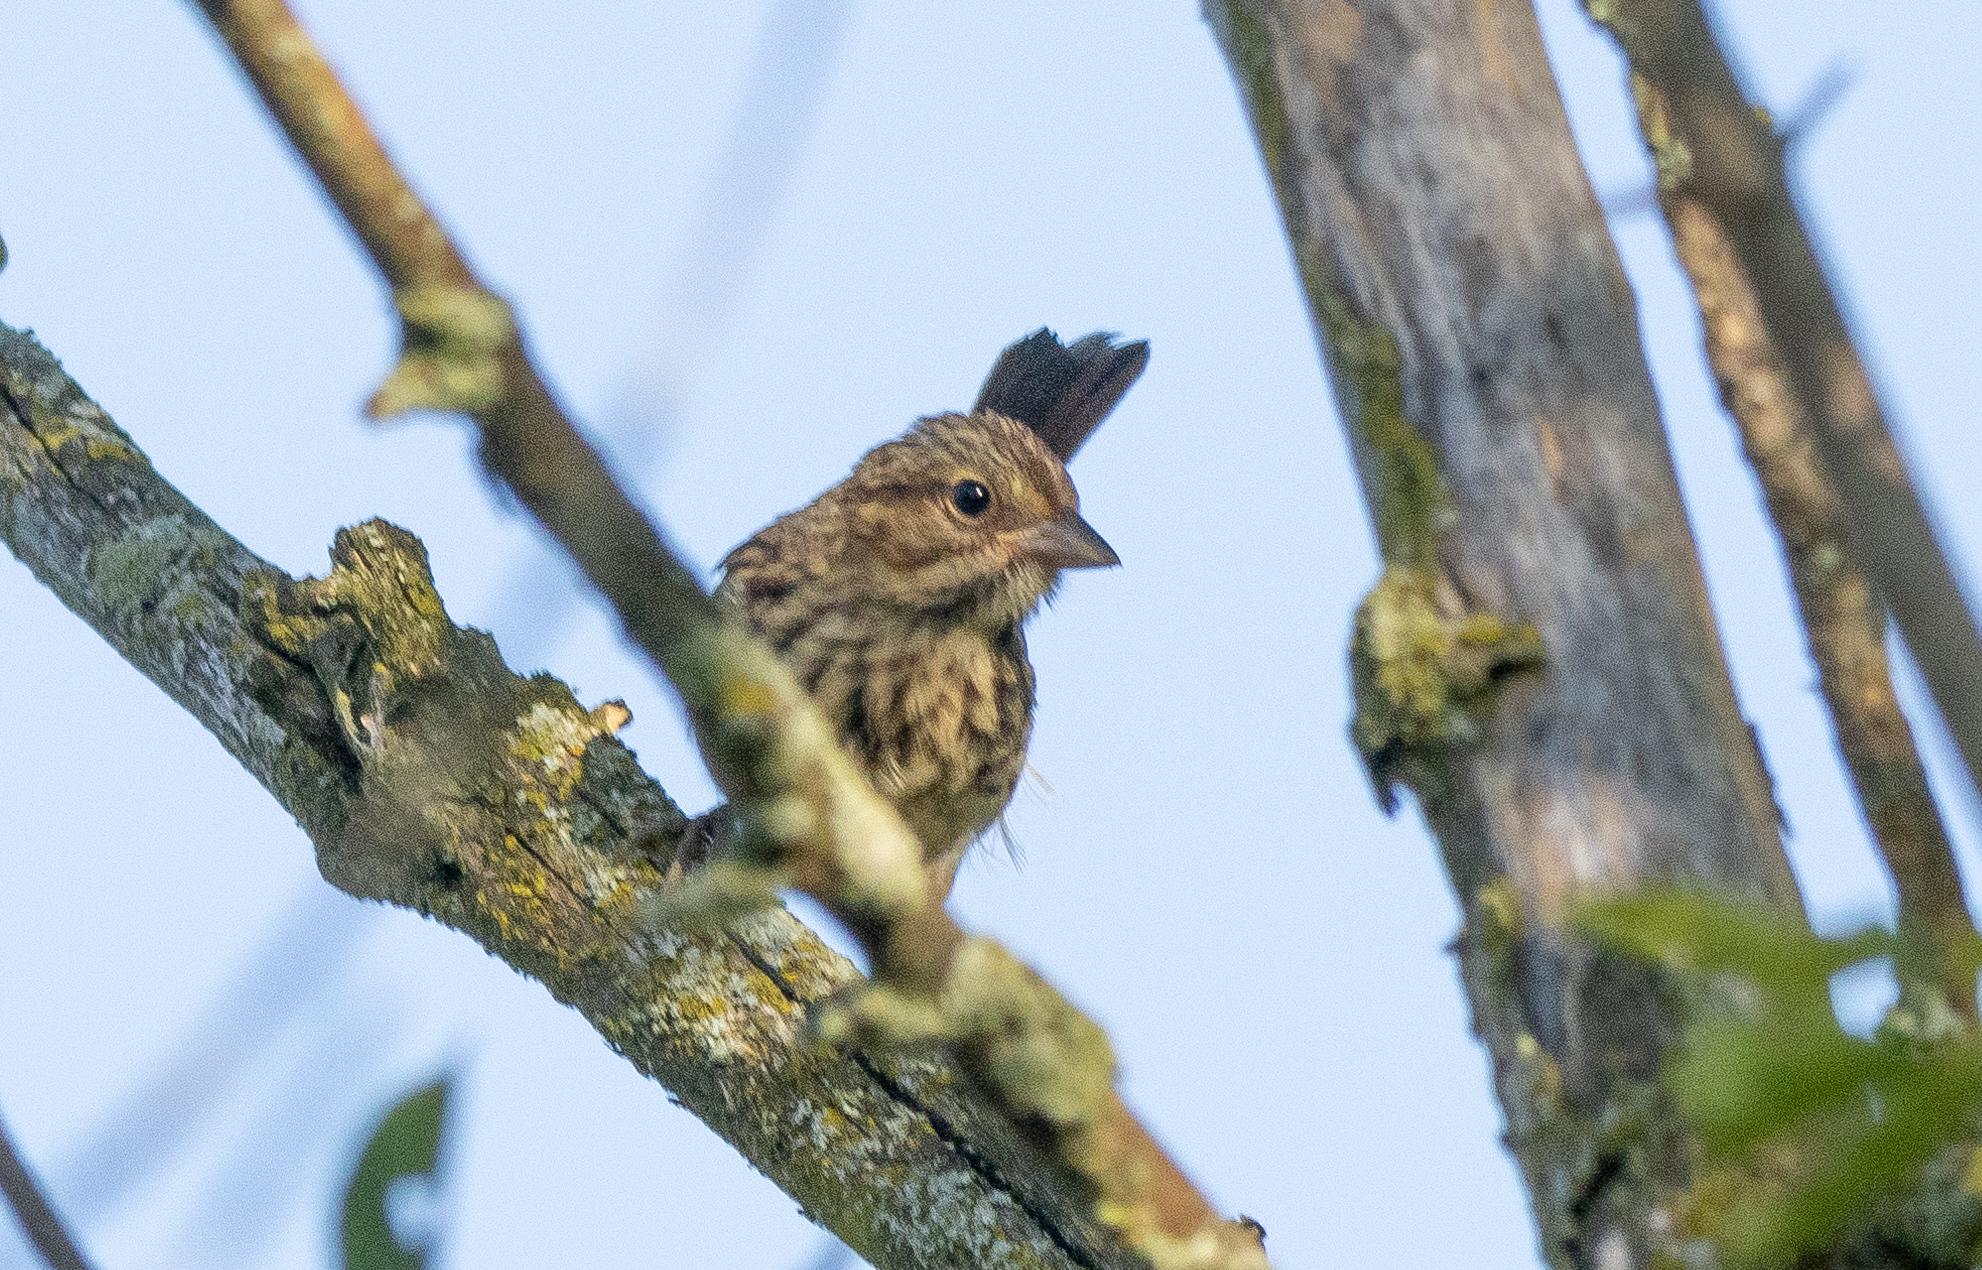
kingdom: Animalia
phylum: Chordata
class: Aves
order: Passeriformes
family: Passerellidae
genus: Melospiza
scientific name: Melospiza melodia
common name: Song sparrow
